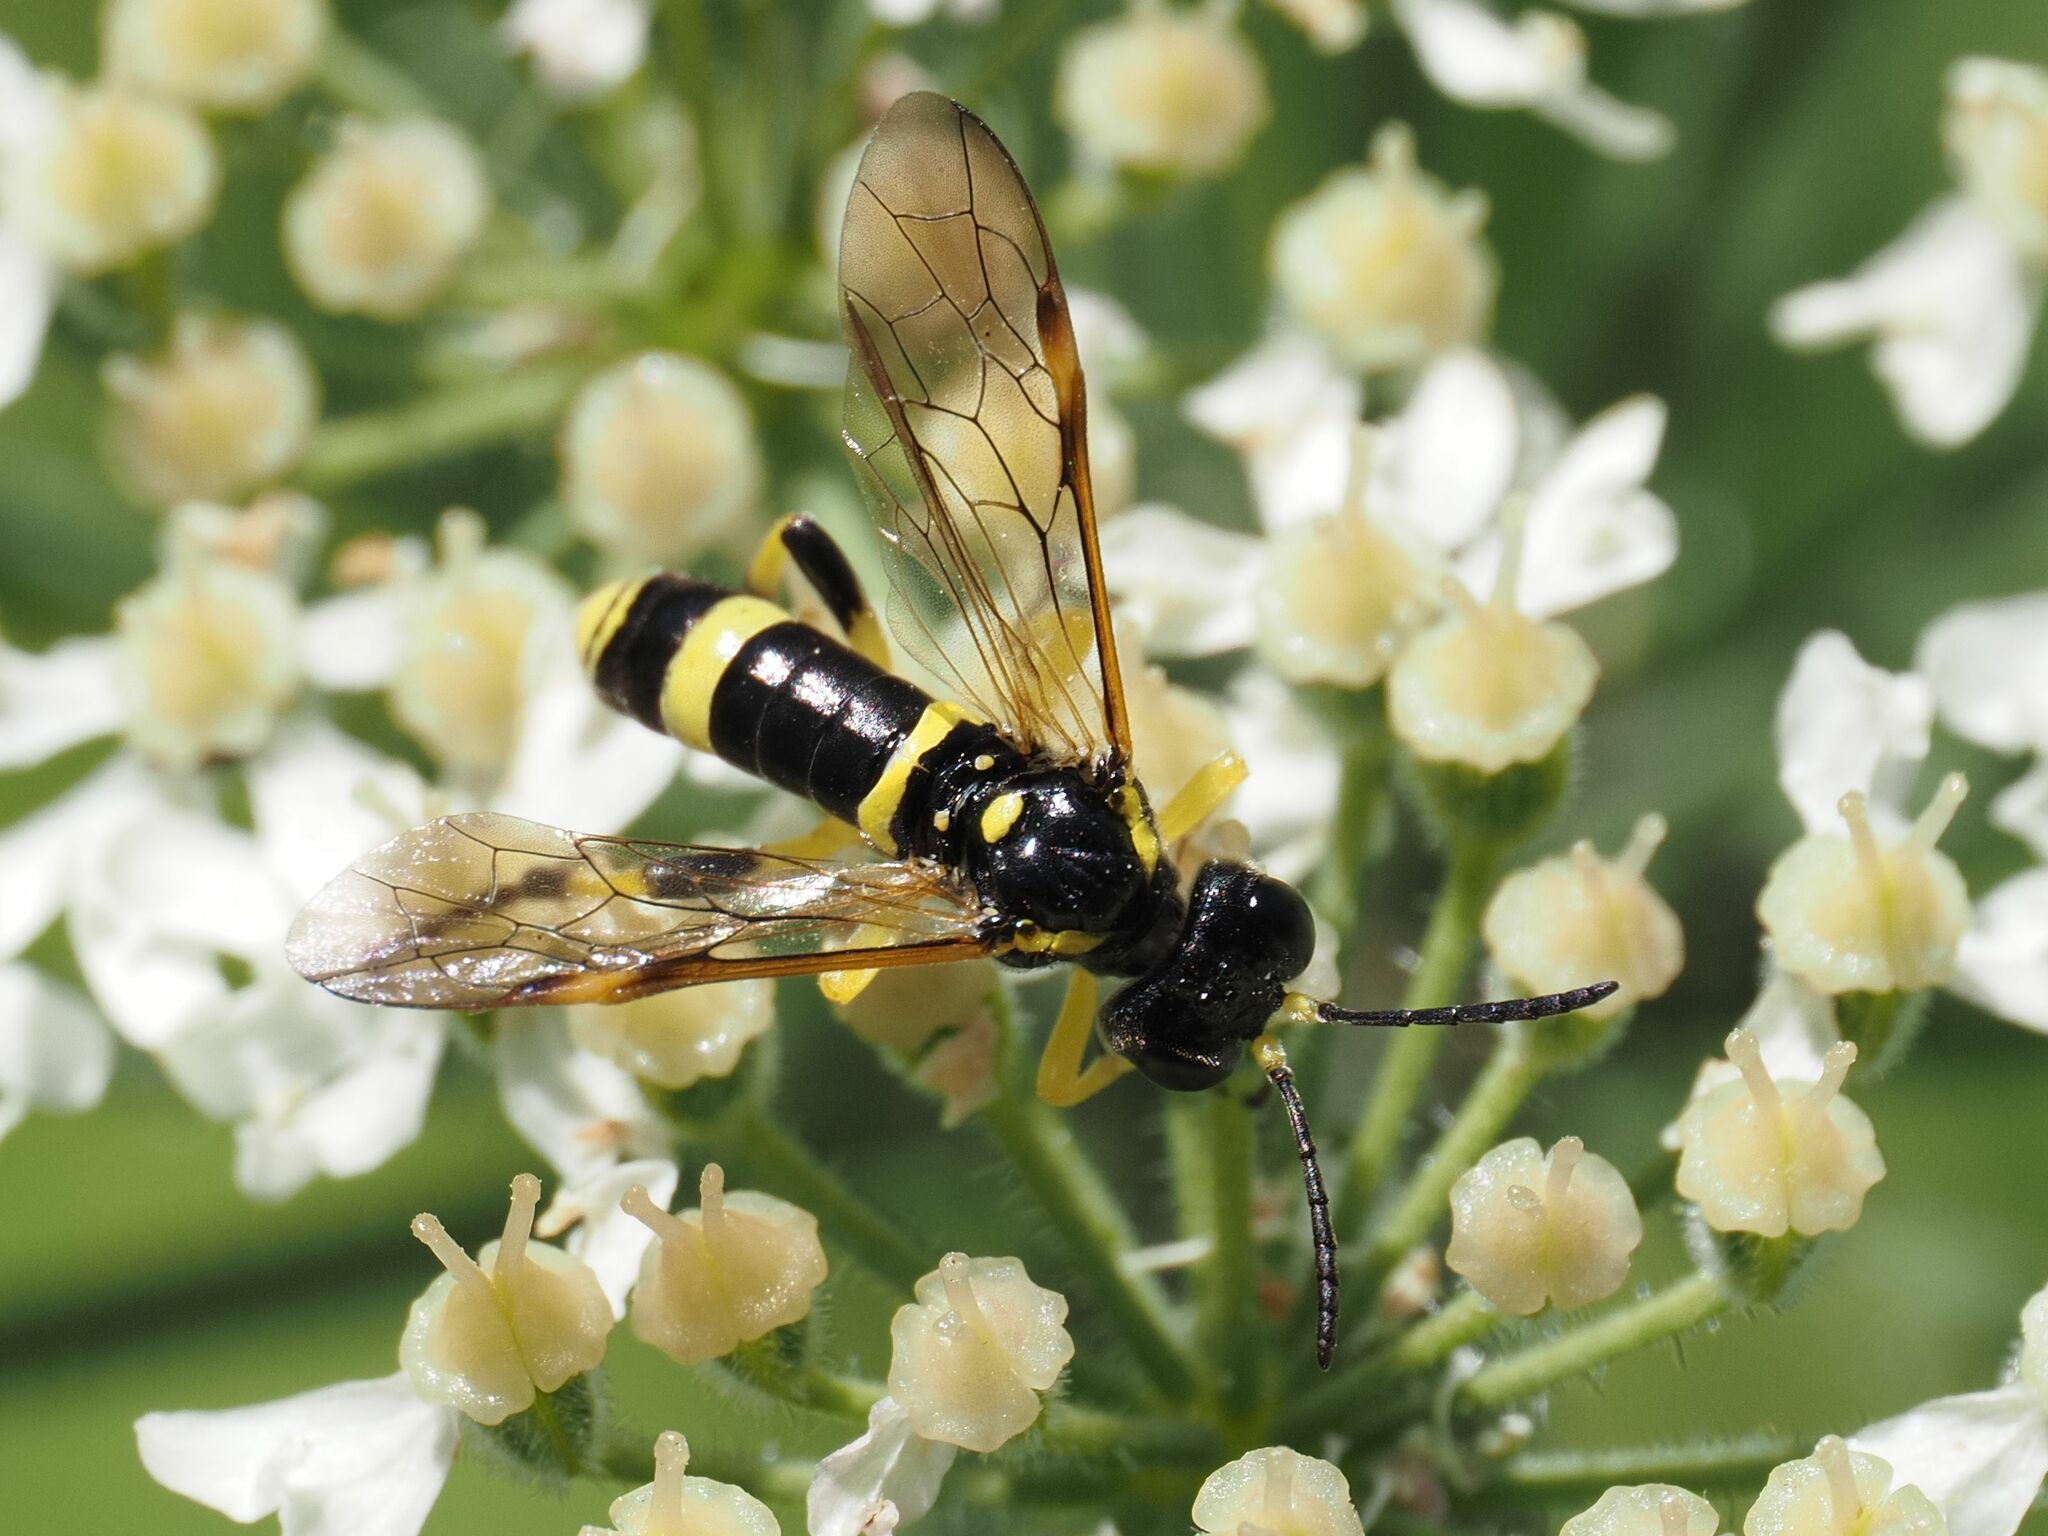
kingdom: Animalia
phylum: Arthropoda
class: Insecta
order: Hymenoptera
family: Tenthredinidae
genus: Tenthredo
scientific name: Tenthredo amoena
